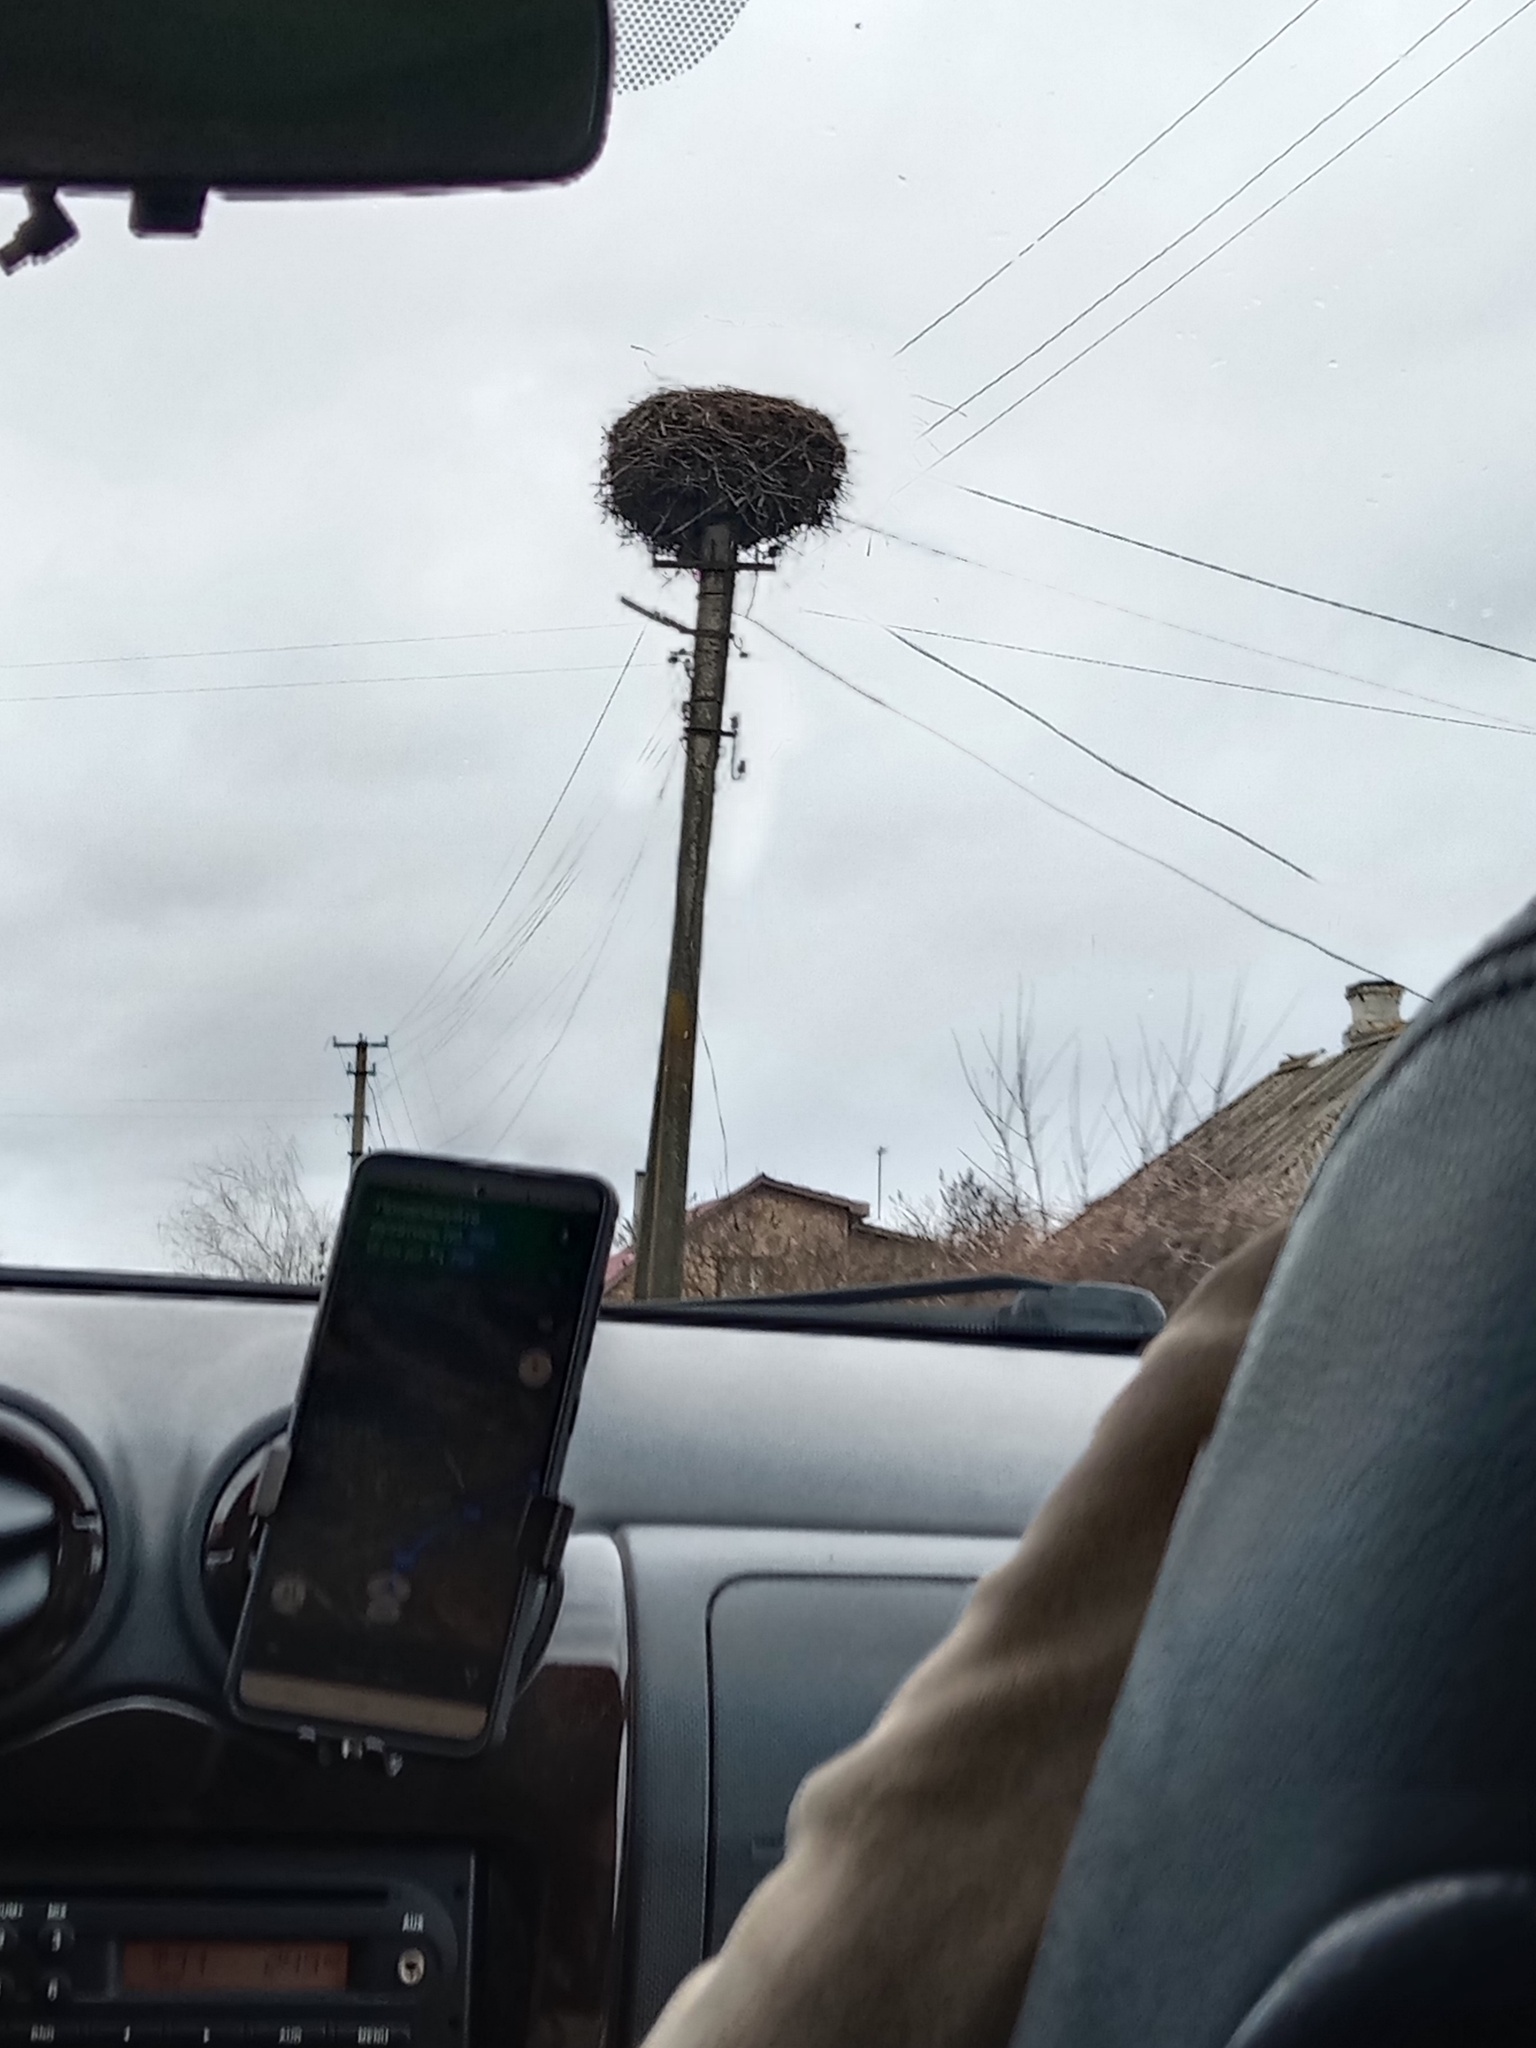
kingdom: Plantae
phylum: Tracheophyta
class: Magnoliopsida
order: Santalales
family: Viscaceae
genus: Viscum
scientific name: Viscum album
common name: Mistletoe
